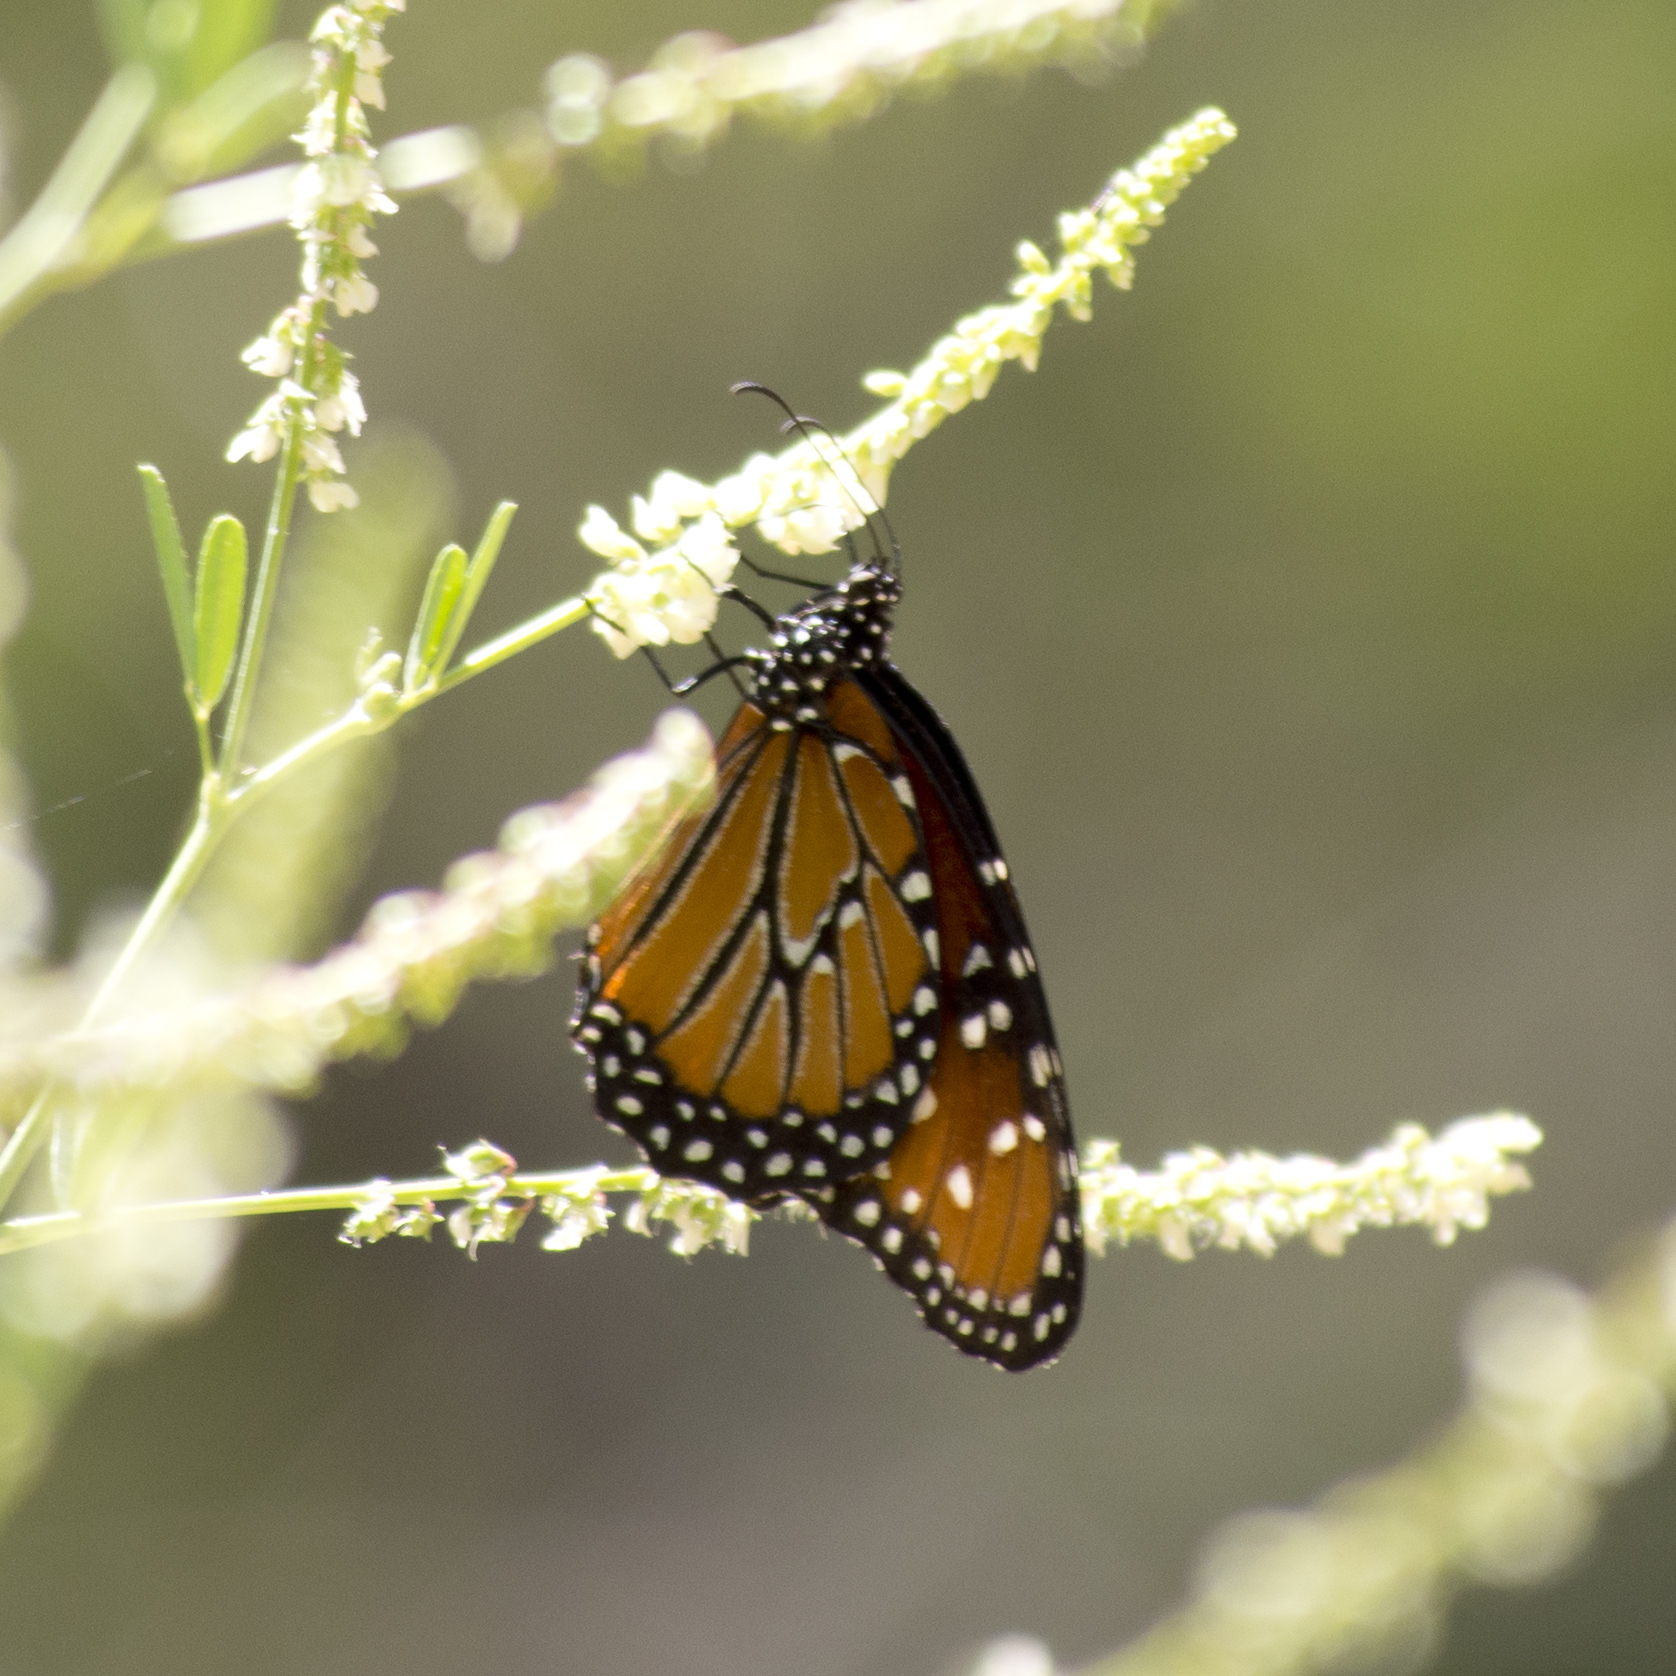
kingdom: Animalia
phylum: Arthropoda
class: Insecta
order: Lepidoptera
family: Nymphalidae
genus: Danaus
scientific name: Danaus gilippus
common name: Queen
